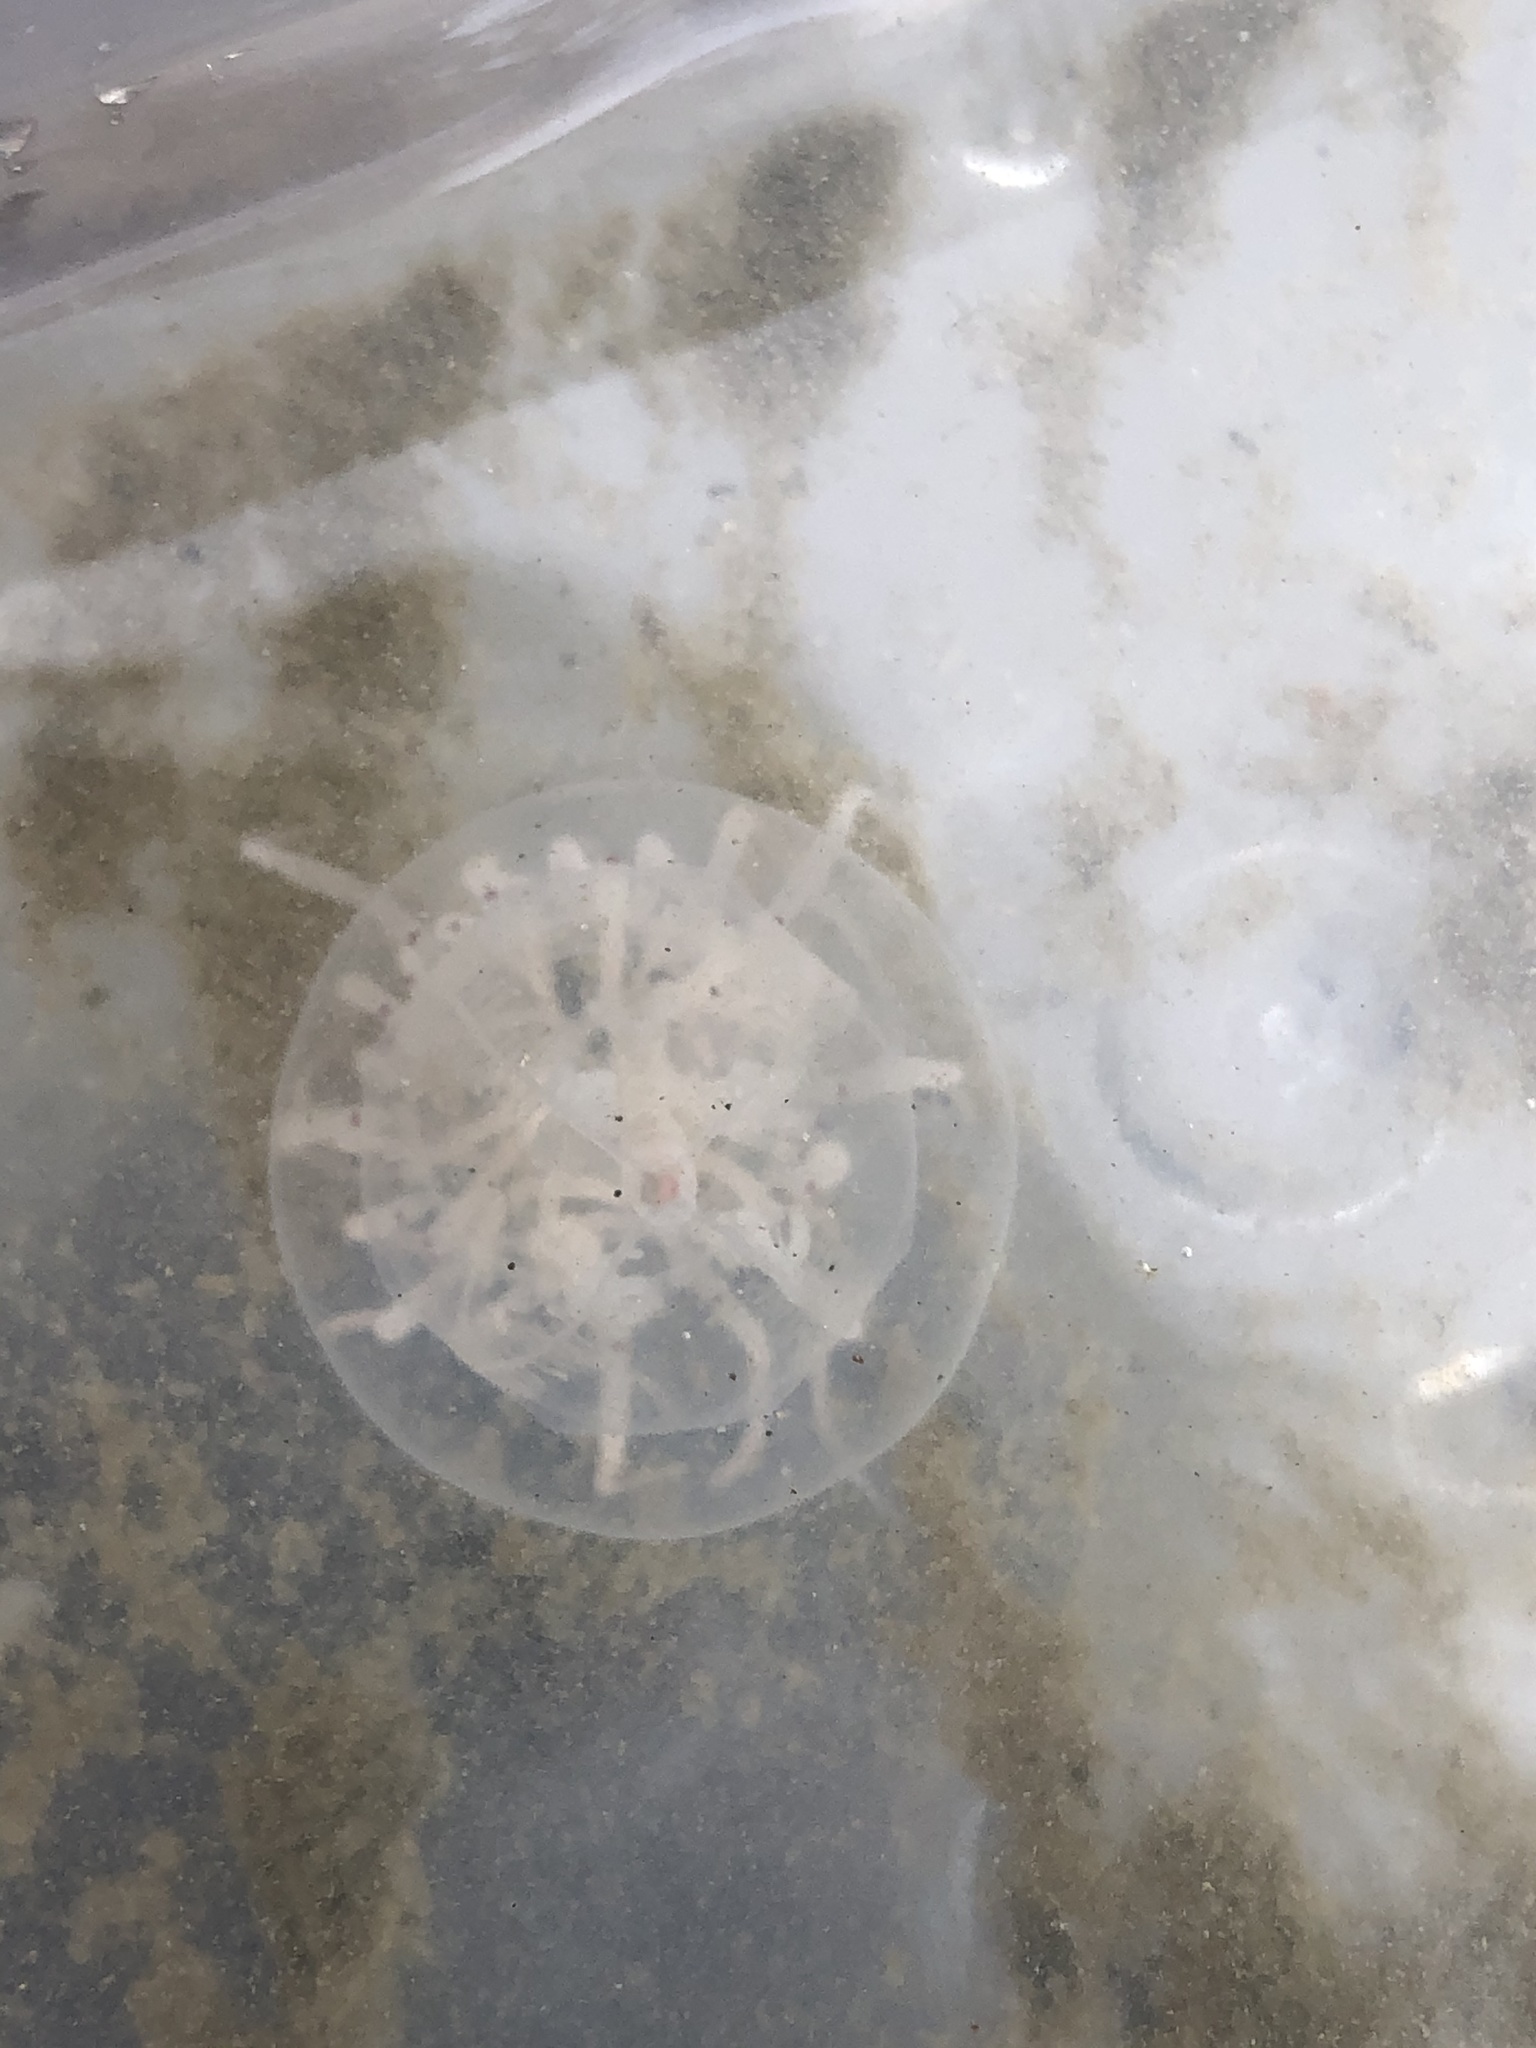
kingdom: Animalia
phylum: Cnidaria
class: Hydrozoa
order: Anthoathecata
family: Corynidae
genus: Polyorchis
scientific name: Polyorchis penicillatus
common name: Penicillate jellyfish
